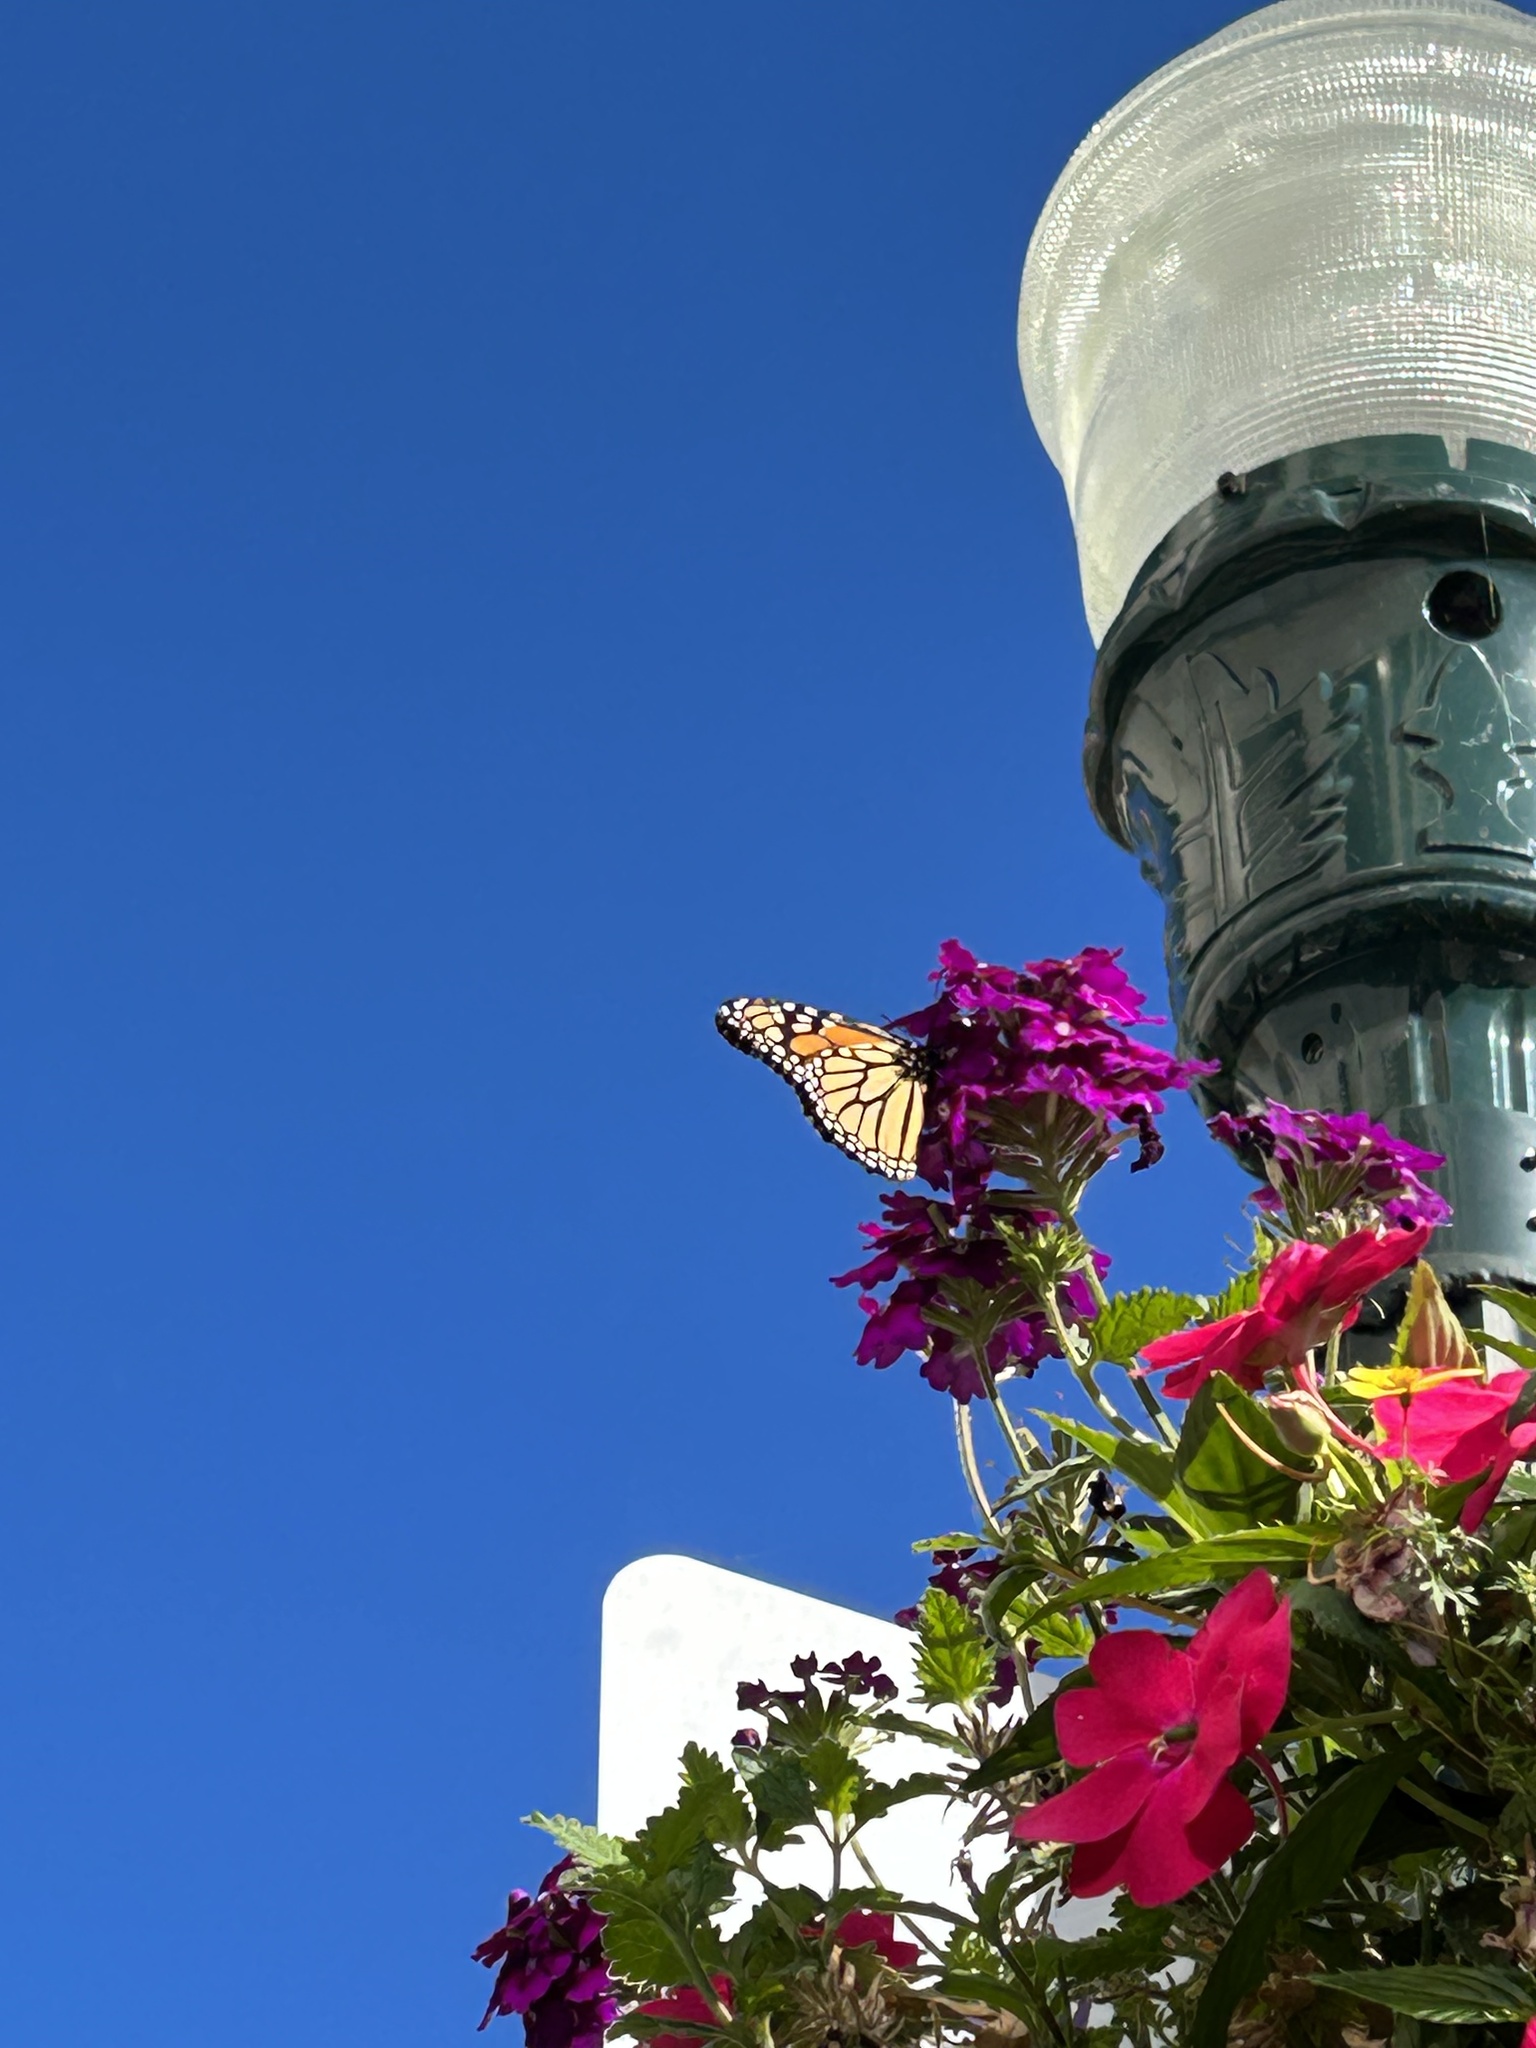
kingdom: Animalia
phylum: Arthropoda
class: Insecta
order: Lepidoptera
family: Nymphalidae
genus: Danaus
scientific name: Danaus plexippus
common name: Monarch
